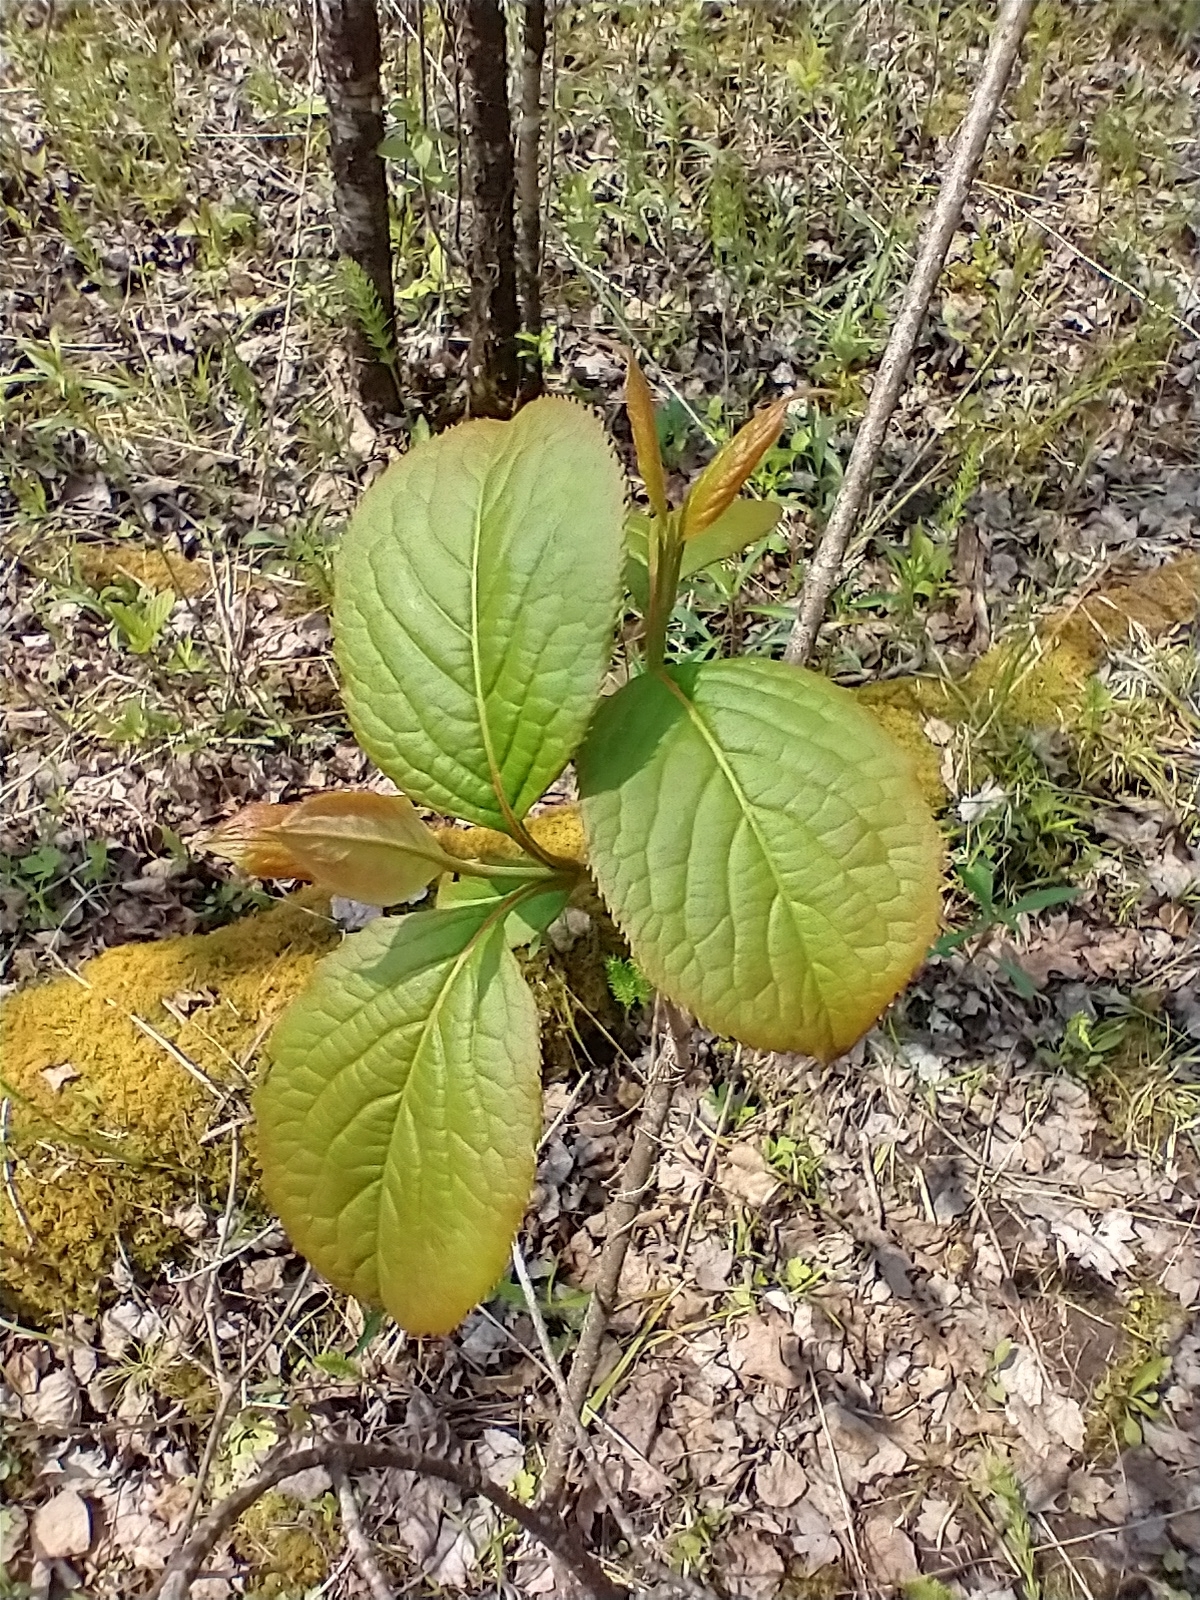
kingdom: Plantae
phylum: Tracheophyta
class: Magnoliopsida
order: Dipsacales
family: Viburnaceae
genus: Viburnum
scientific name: Viburnum lentago
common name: Black haw
